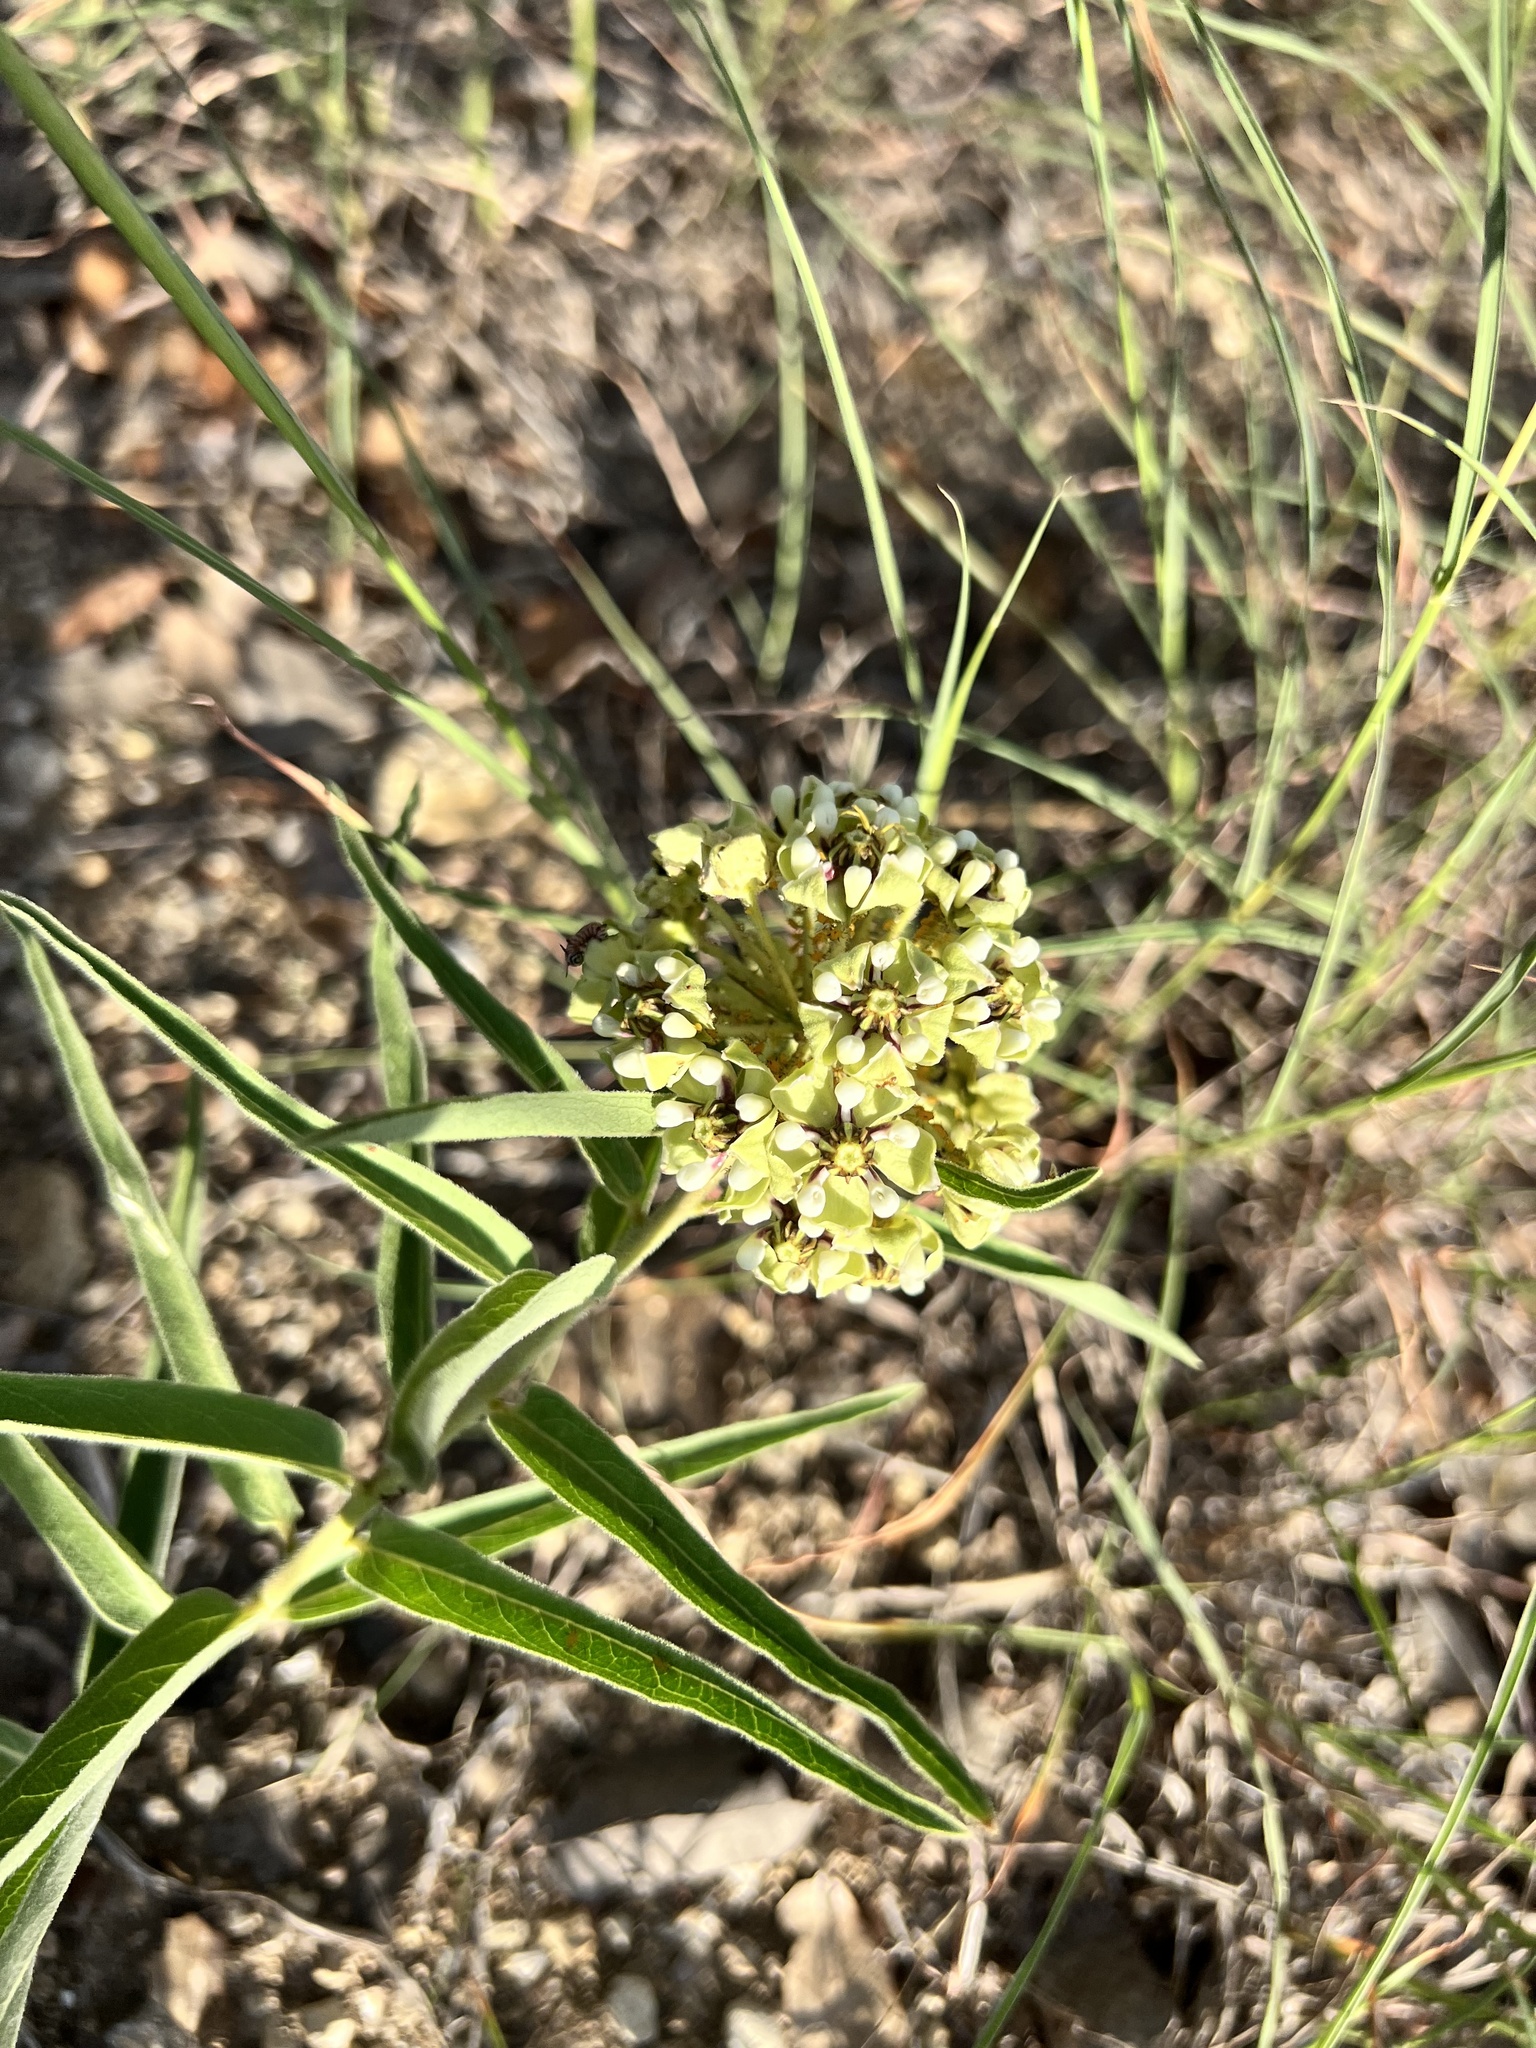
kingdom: Plantae
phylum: Tracheophyta
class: Magnoliopsida
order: Gentianales
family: Apocynaceae
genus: Asclepias
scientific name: Asclepias asperula
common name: Antelope horns
